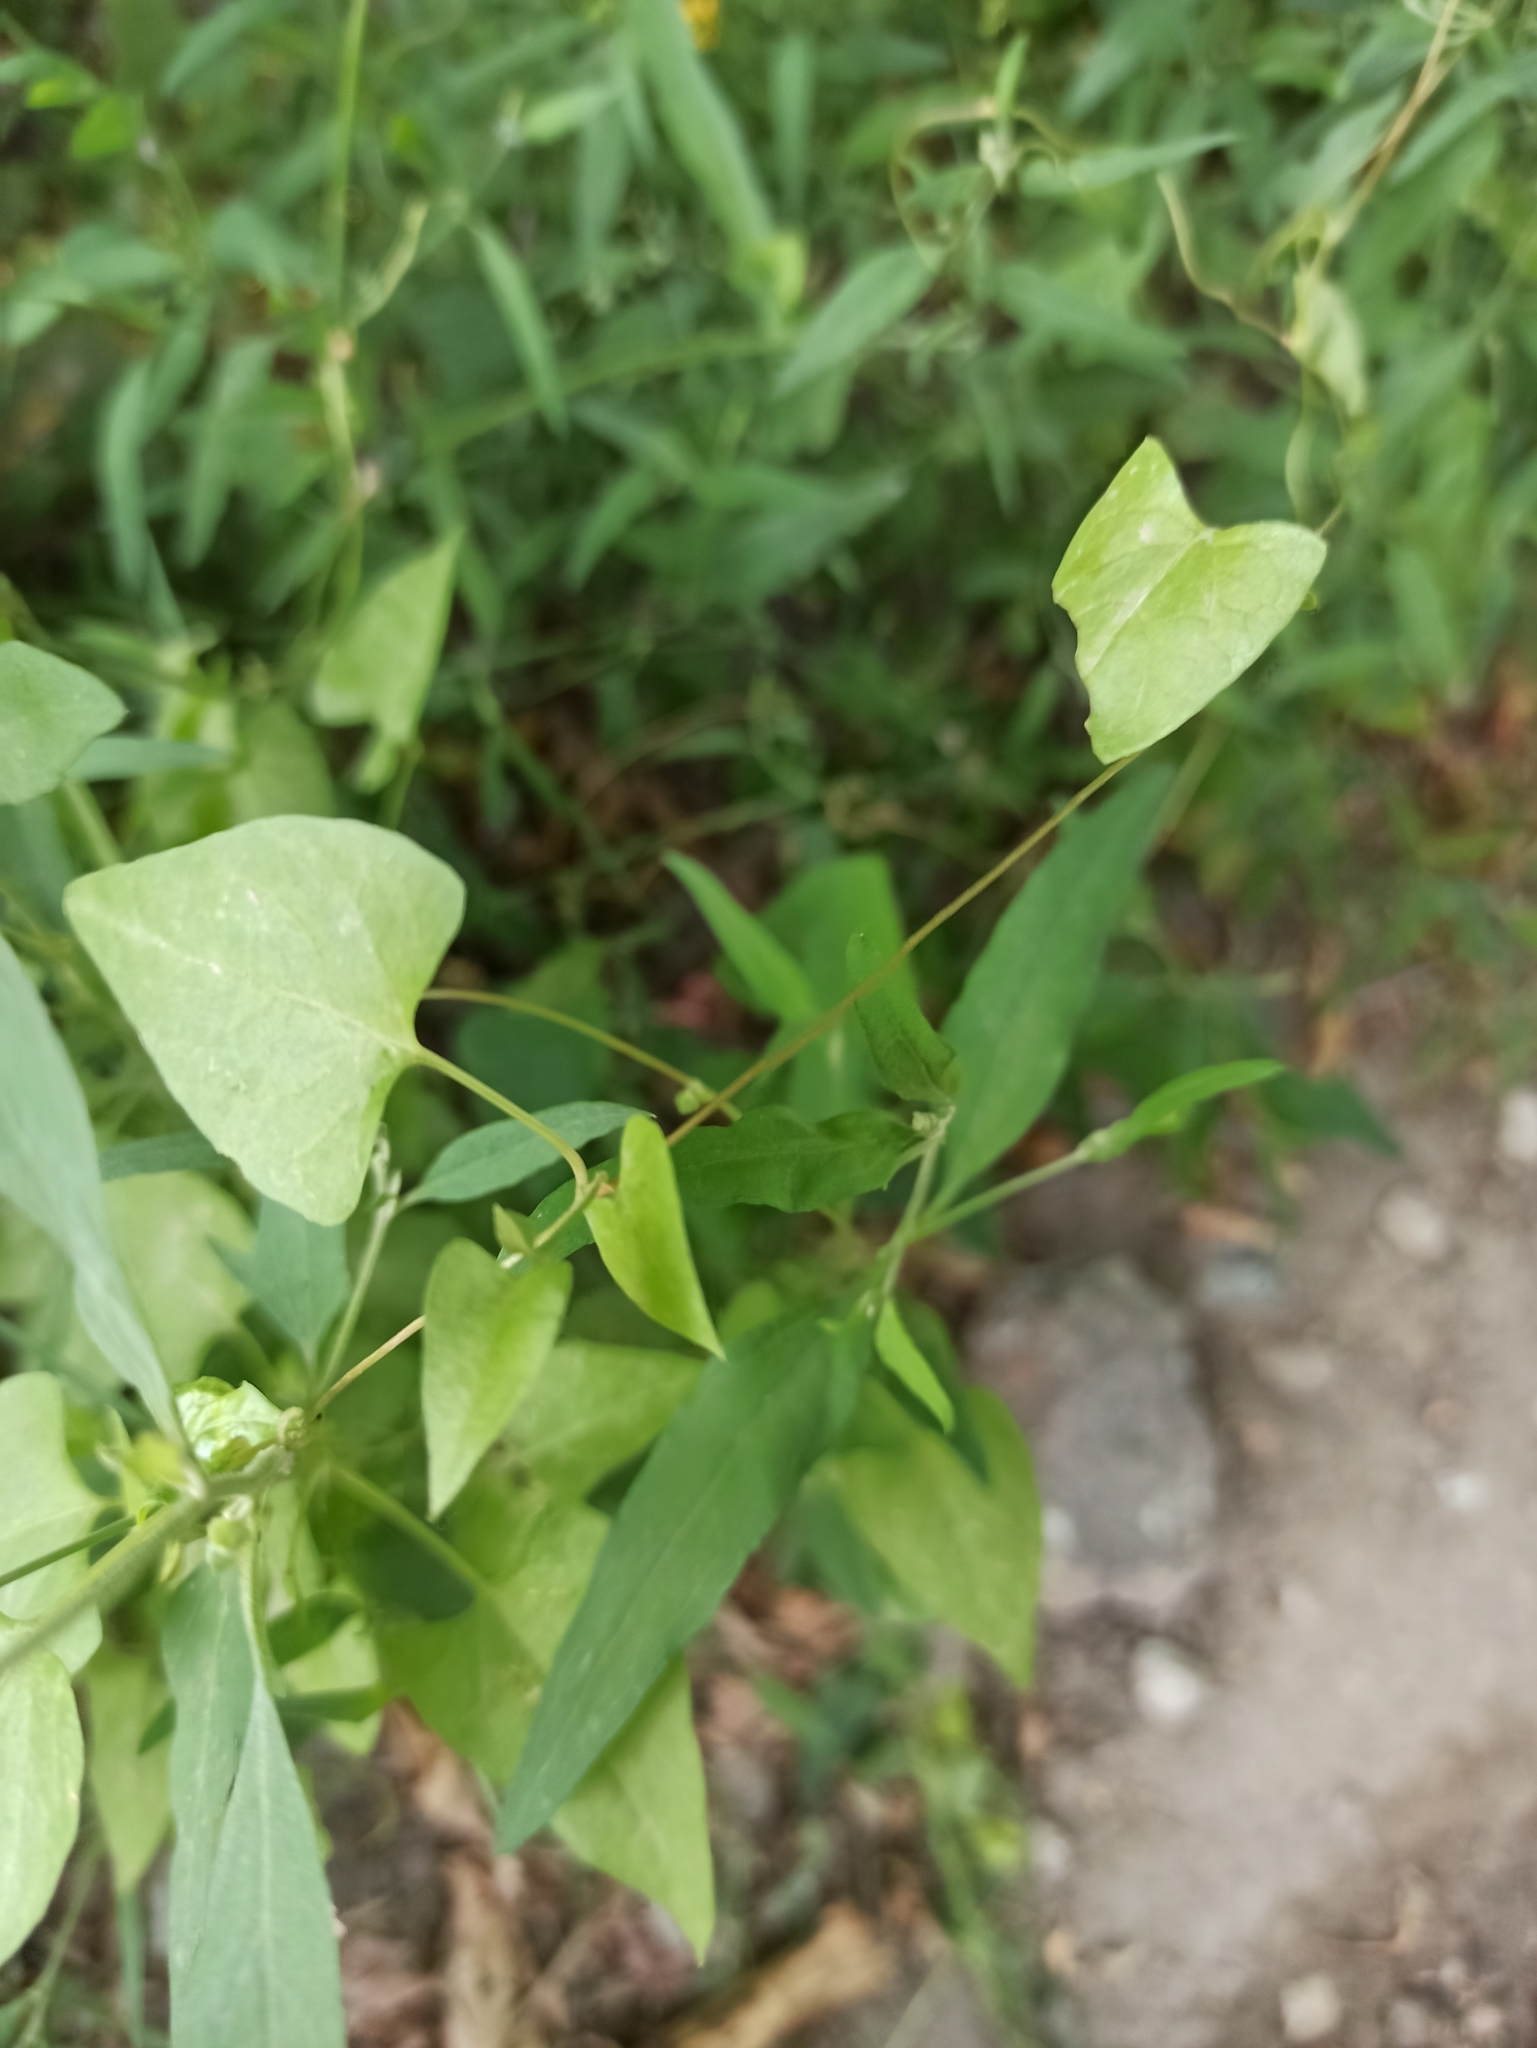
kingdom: Plantae
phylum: Tracheophyta
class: Magnoliopsida
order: Caryophyllales
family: Polygonaceae
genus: Fallopia
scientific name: Fallopia convolvulus
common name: Black bindweed
